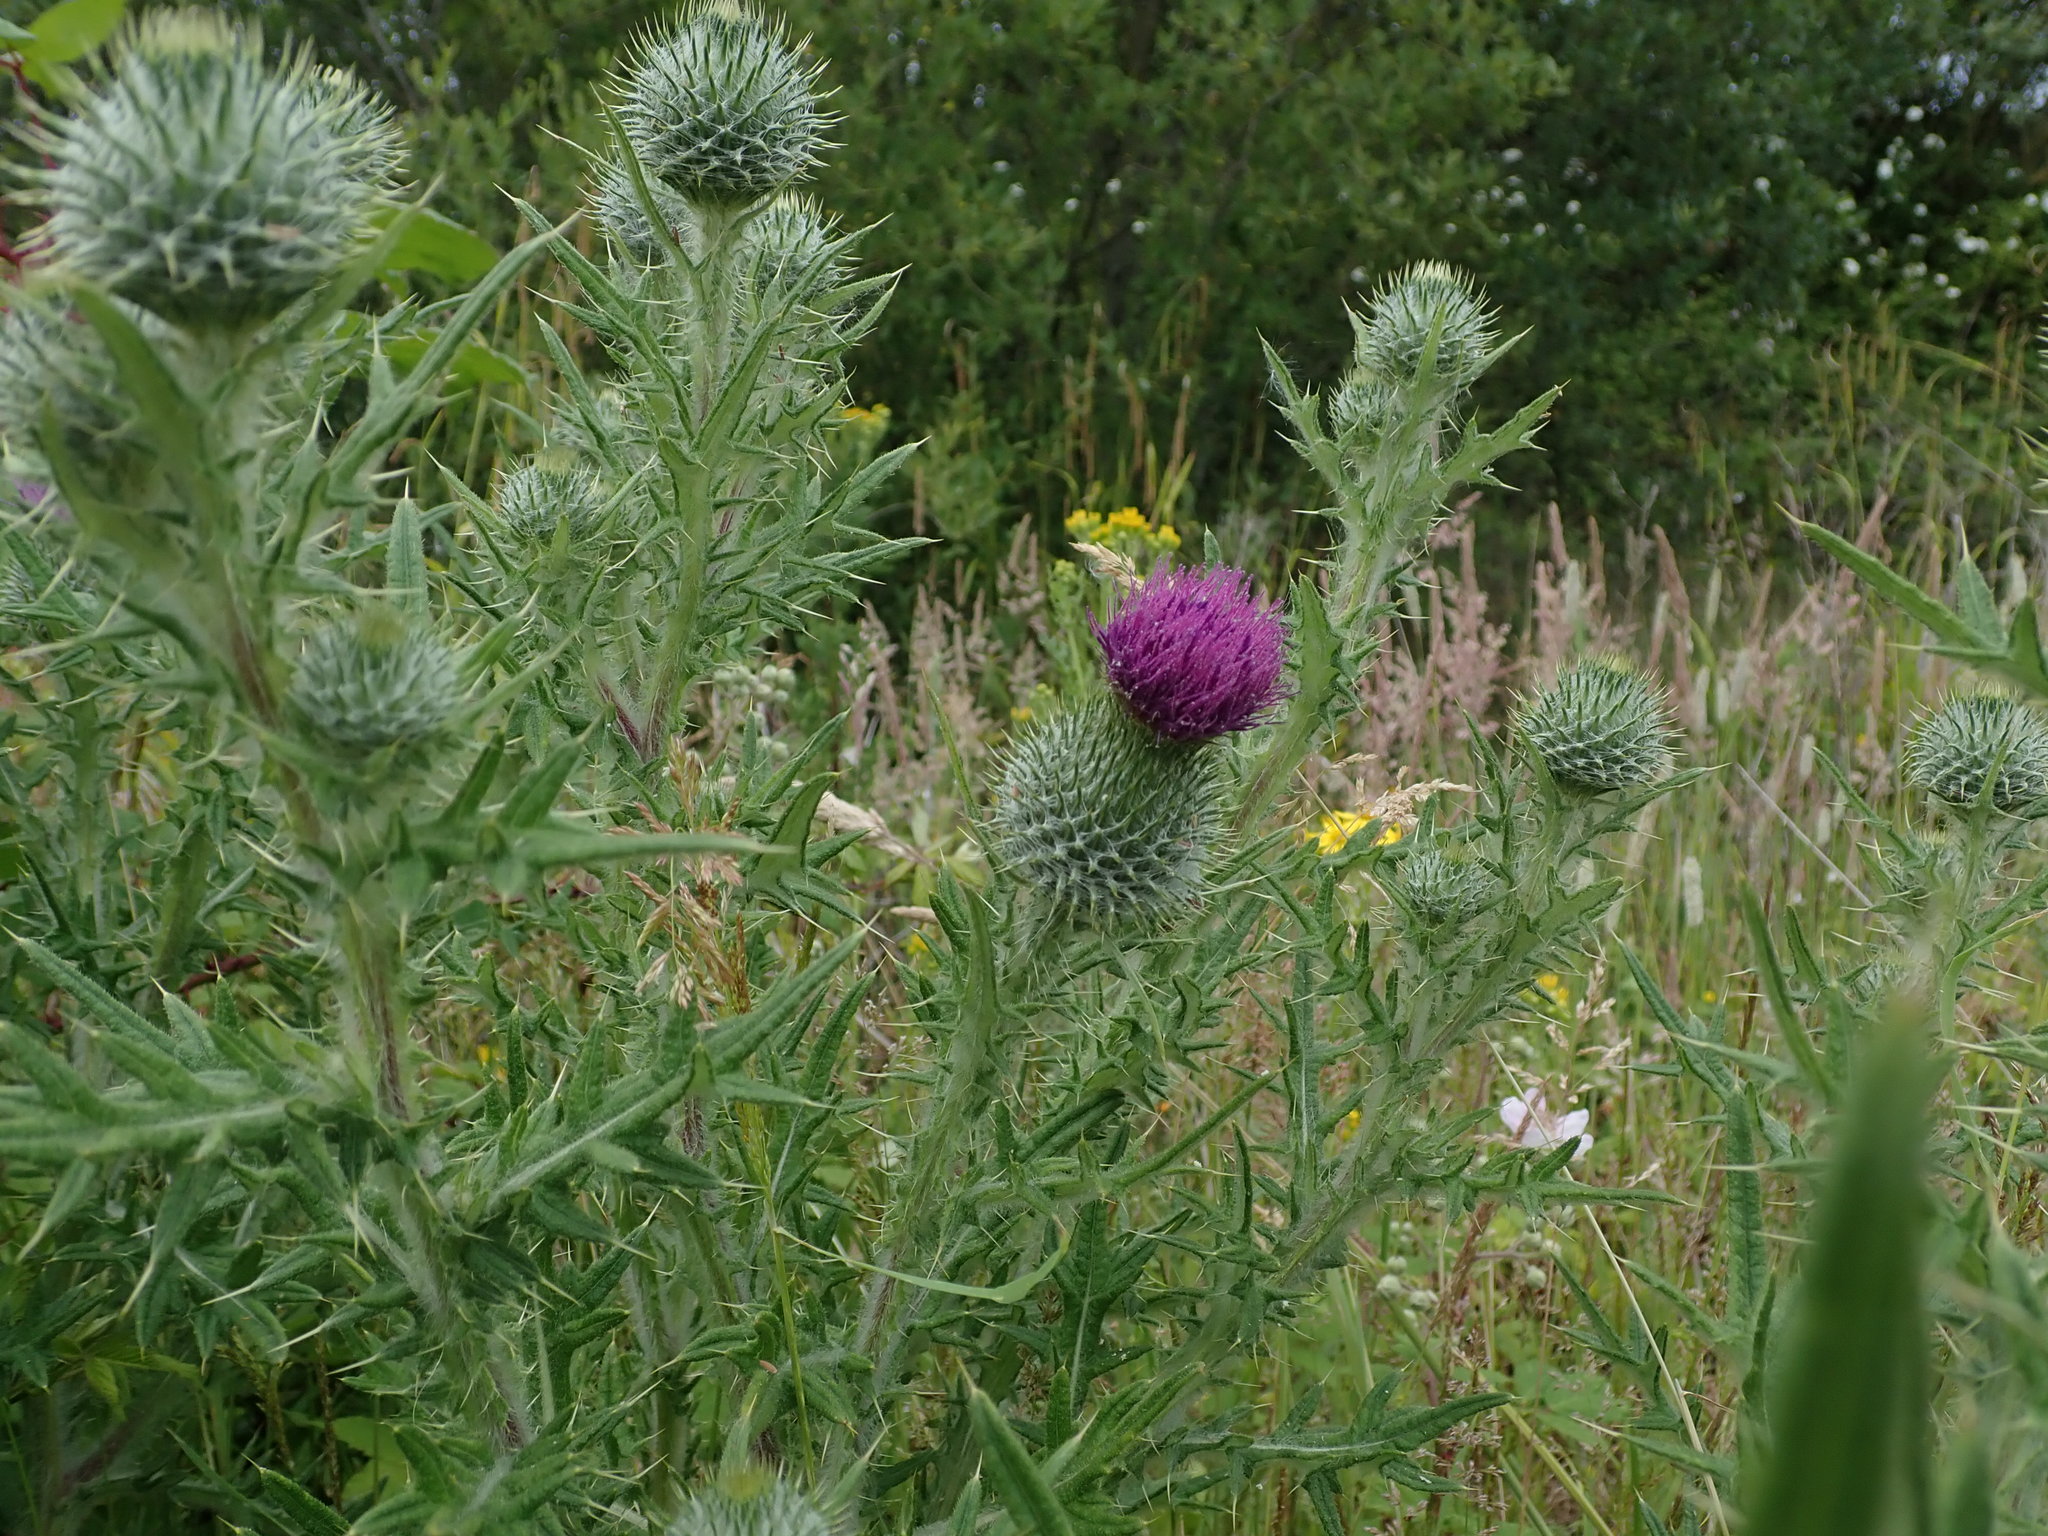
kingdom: Plantae
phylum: Tracheophyta
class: Magnoliopsida
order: Asterales
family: Asteraceae
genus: Cirsium
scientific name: Cirsium vulgare
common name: Bull thistle
